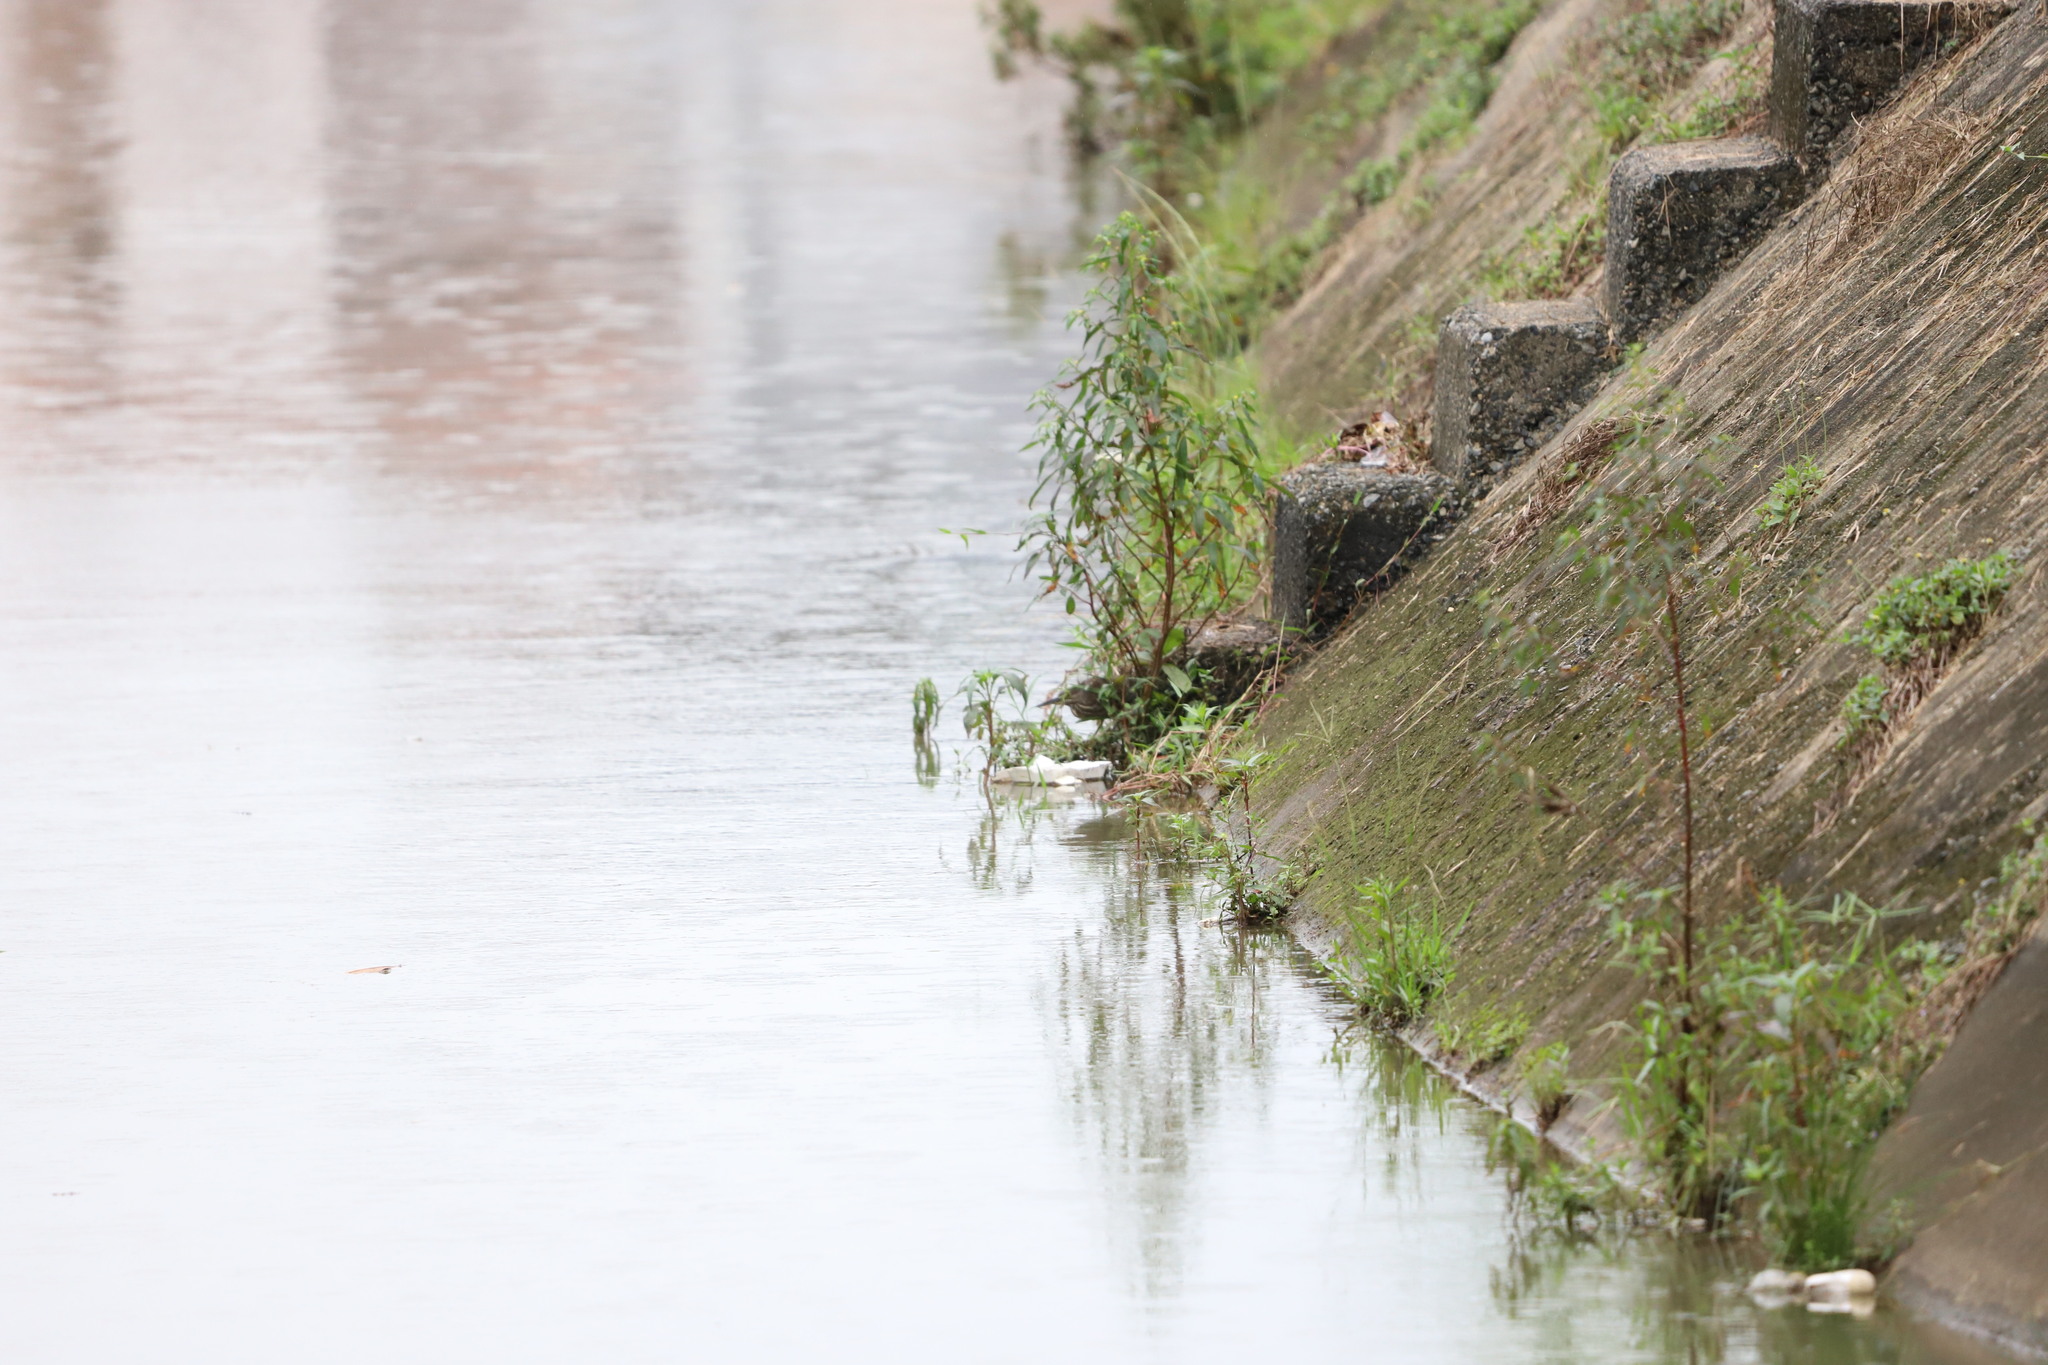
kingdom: Animalia
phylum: Chordata
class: Aves
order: Pelecaniformes
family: Ardeidae
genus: Butorides
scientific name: Butorides striata
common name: Striated heron
